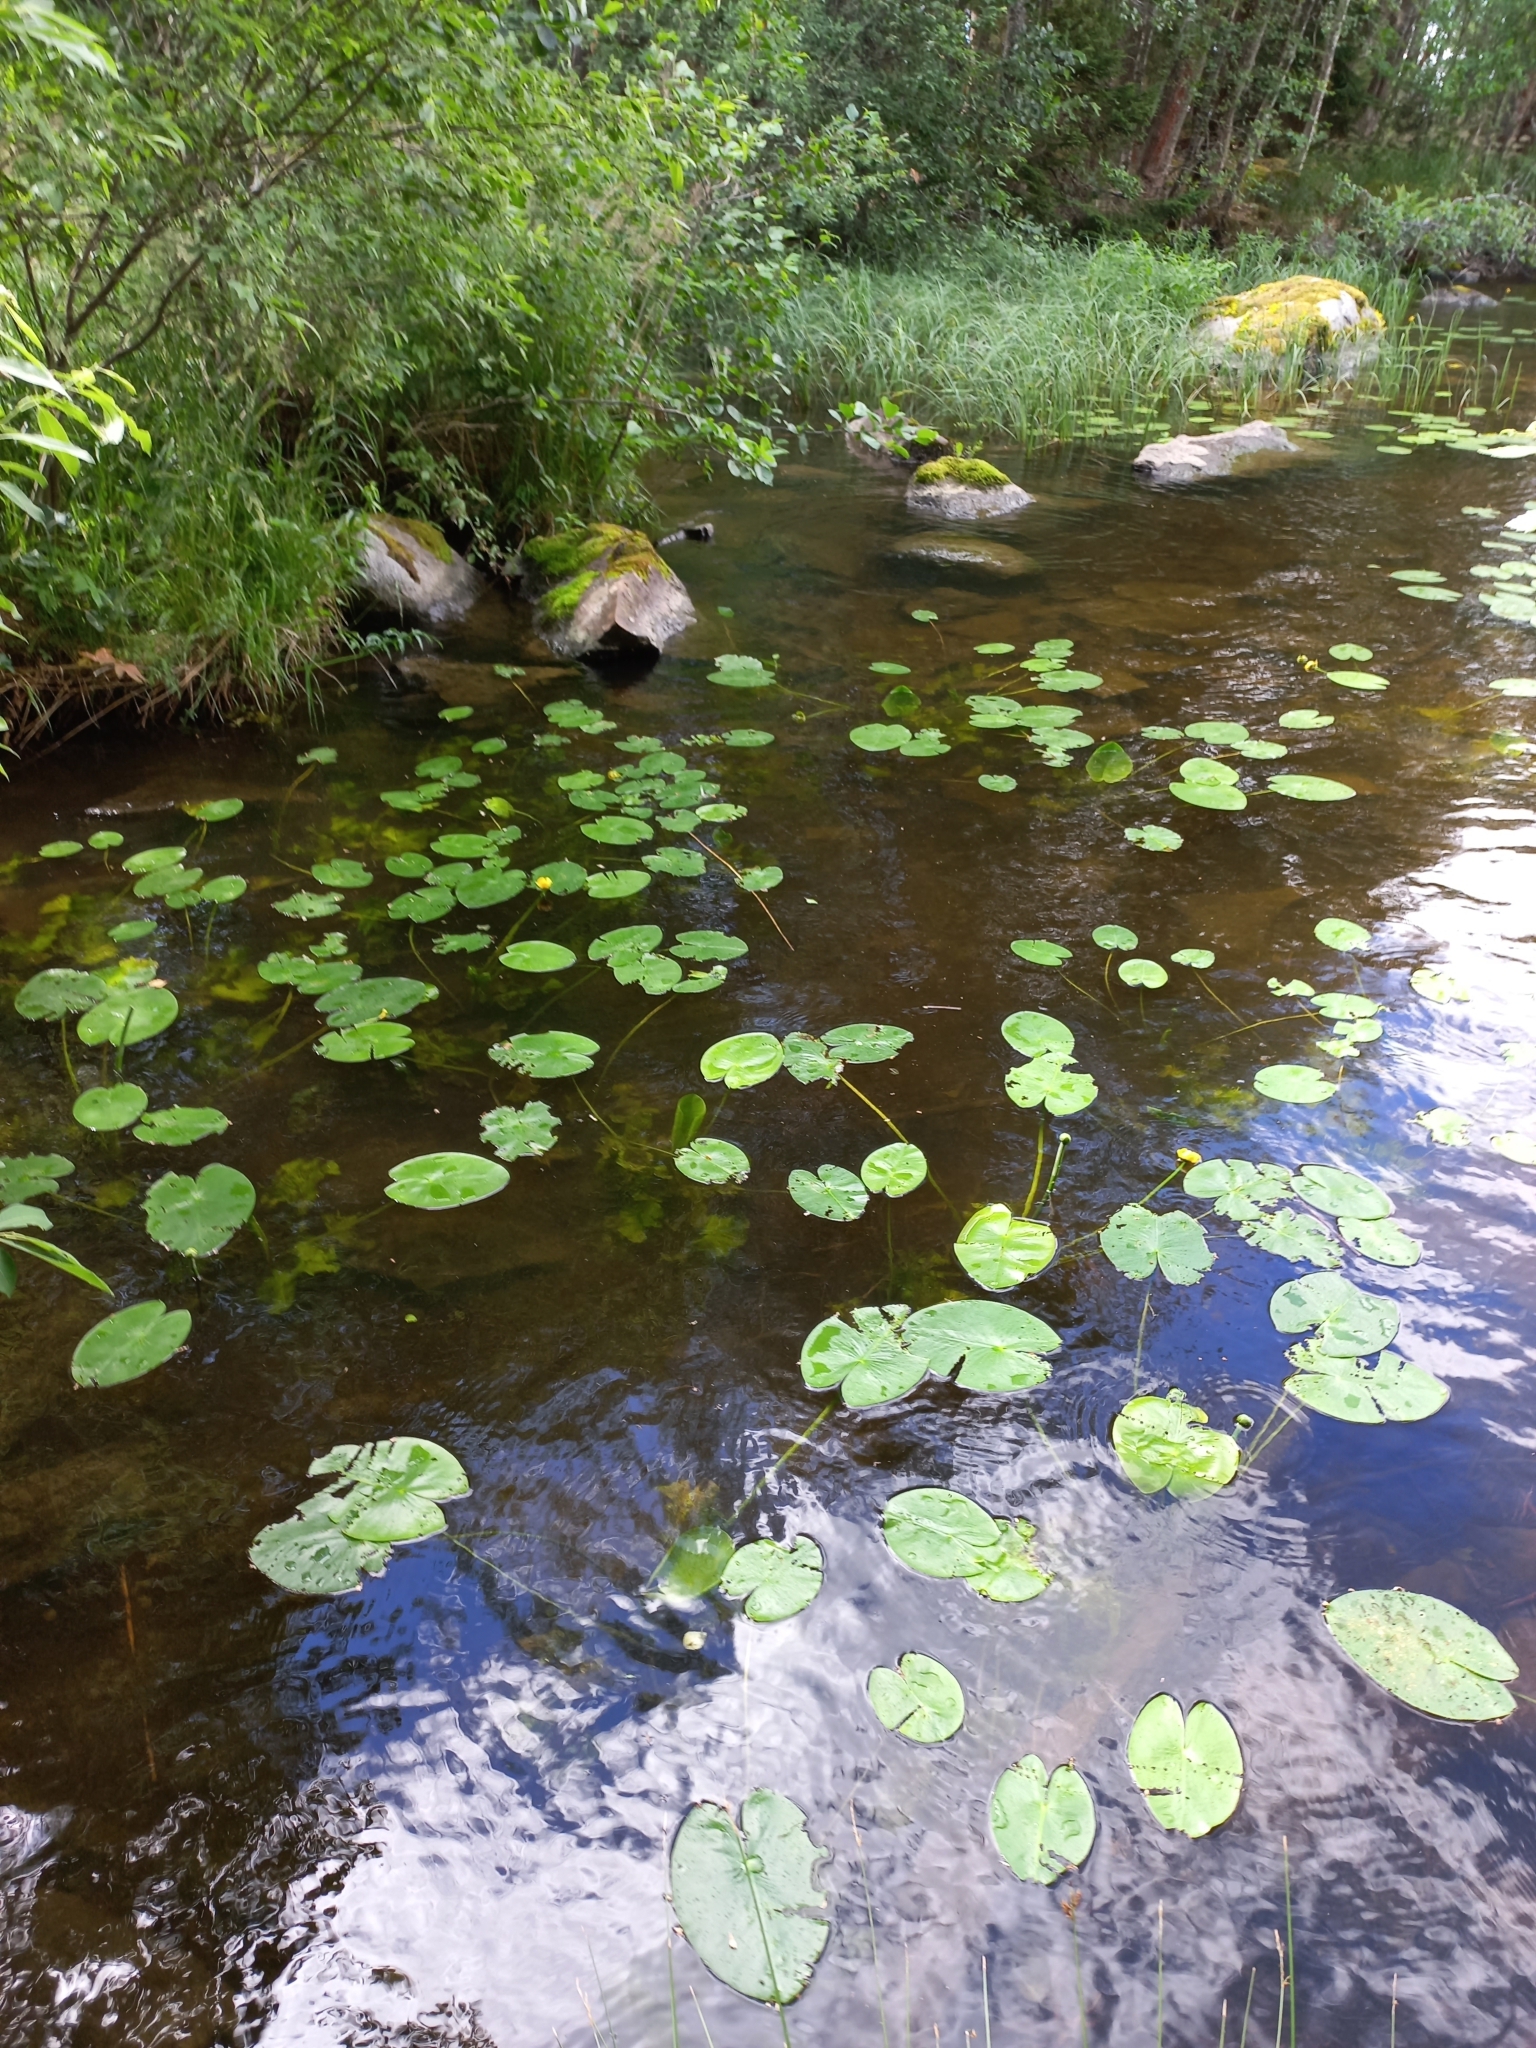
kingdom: Plantae
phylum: Tracheophyta
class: Magnoliopsida
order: Nymphaeales
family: Nymphaeaceae
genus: Nuphar
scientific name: Nuphar lutea
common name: Yellow water-lily
